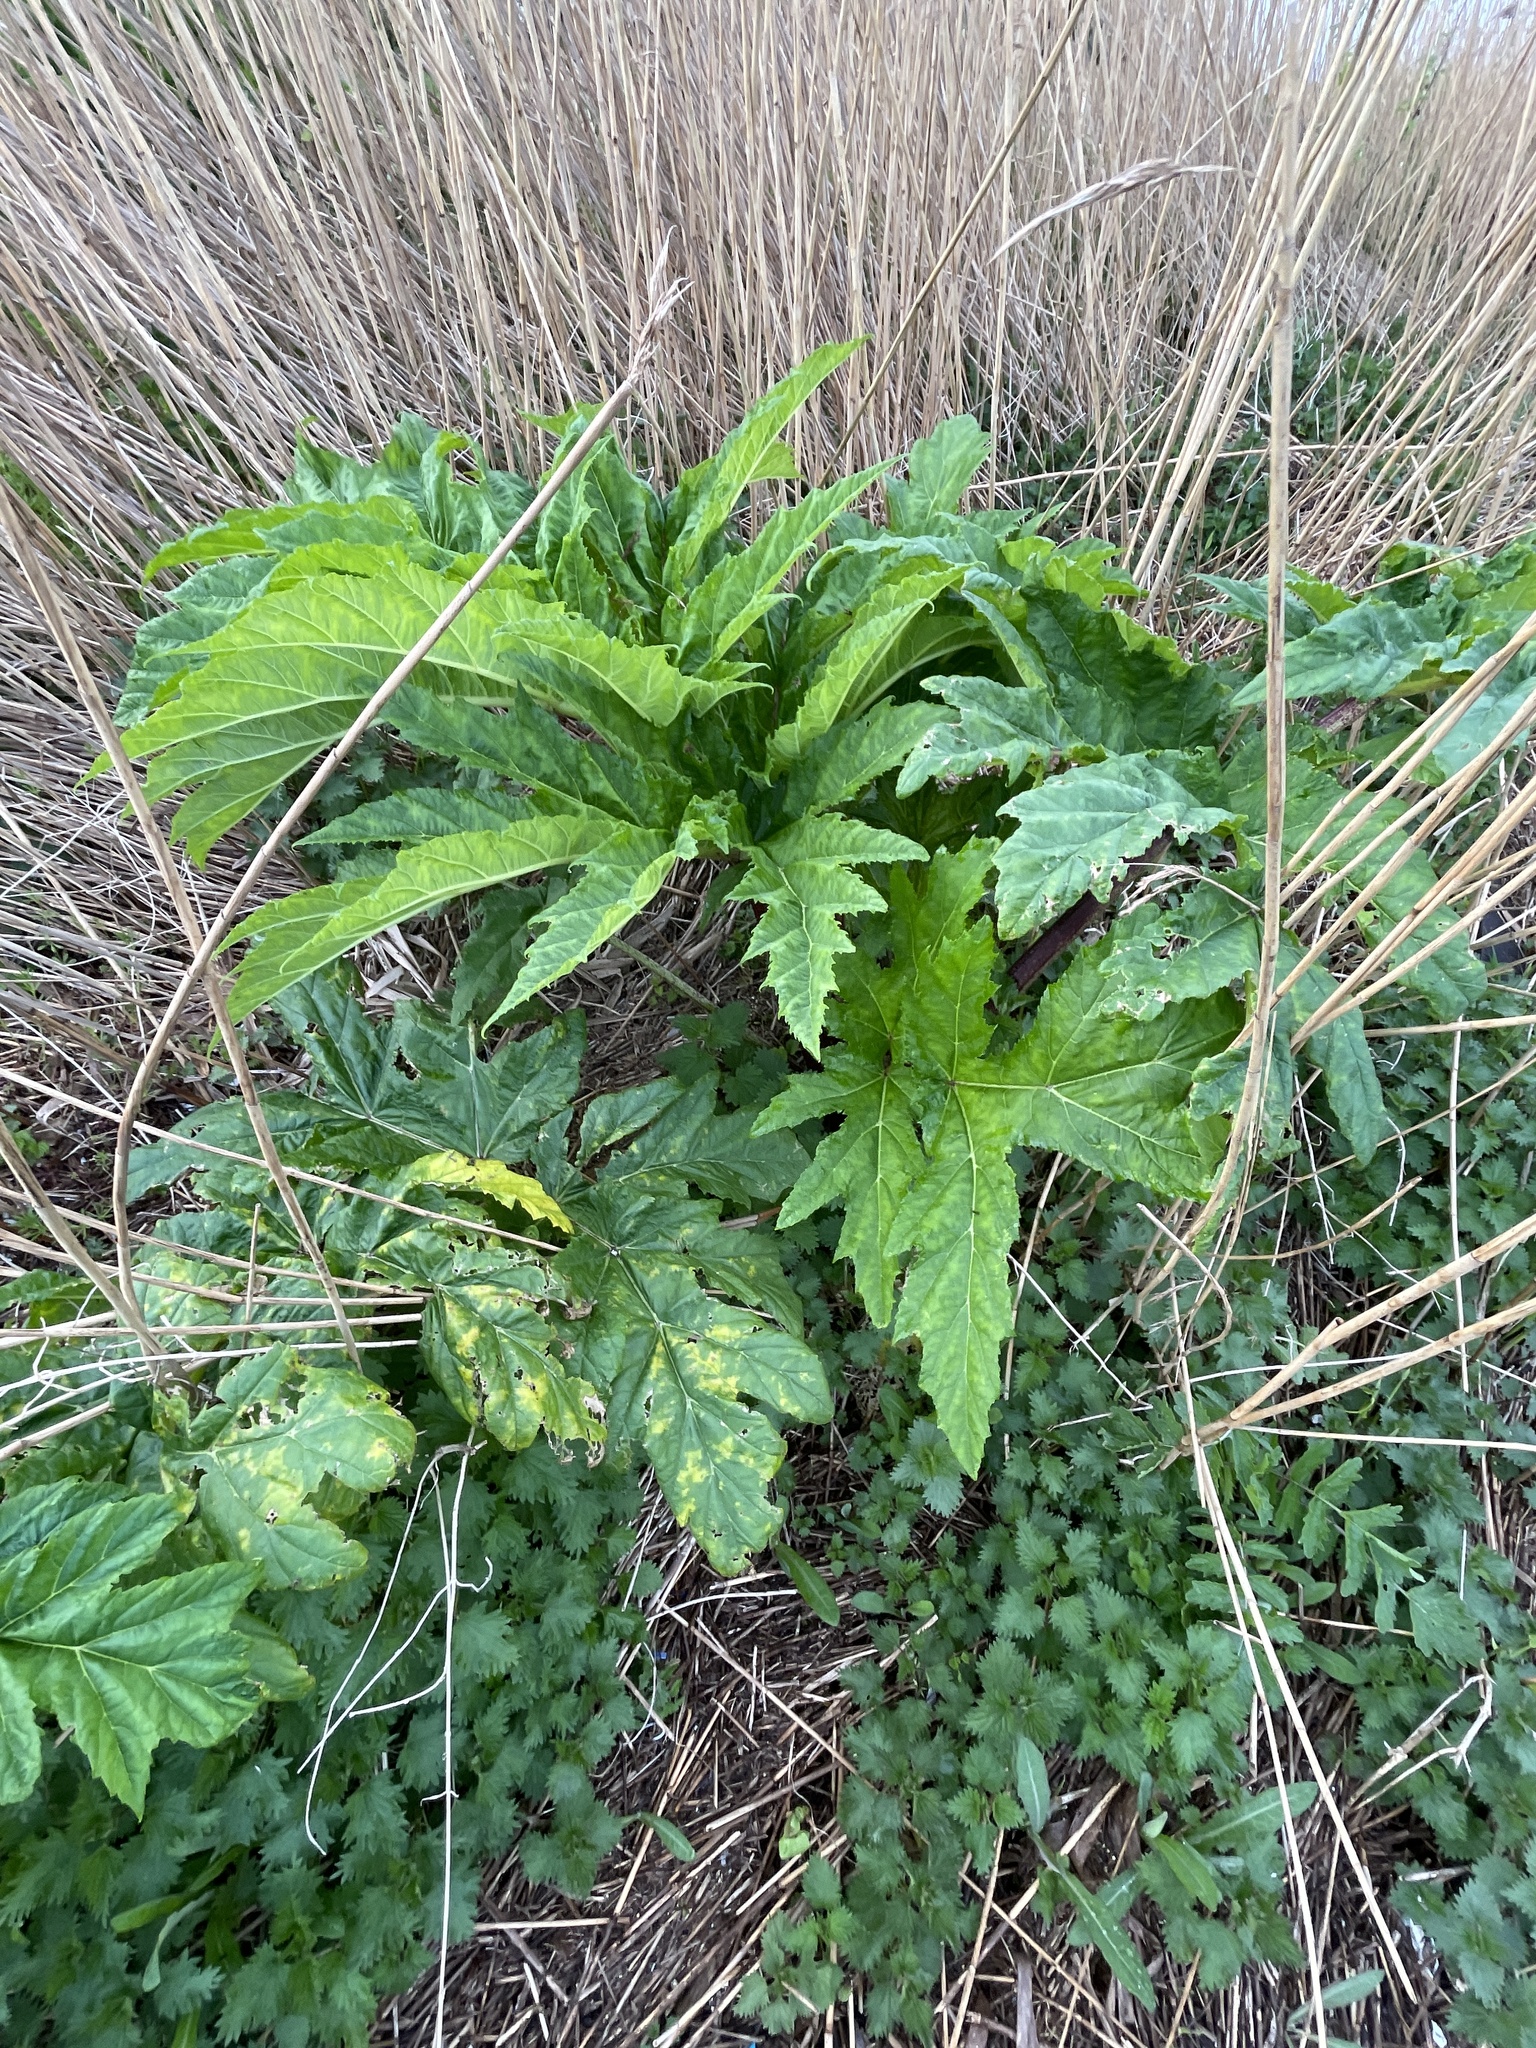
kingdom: Plantae
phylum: Tracheophyta
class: Magnoliopsida
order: Apiales
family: Apiaceae
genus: Heracleum
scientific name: Heracleum mantegazzianum
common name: Giant hogweed
